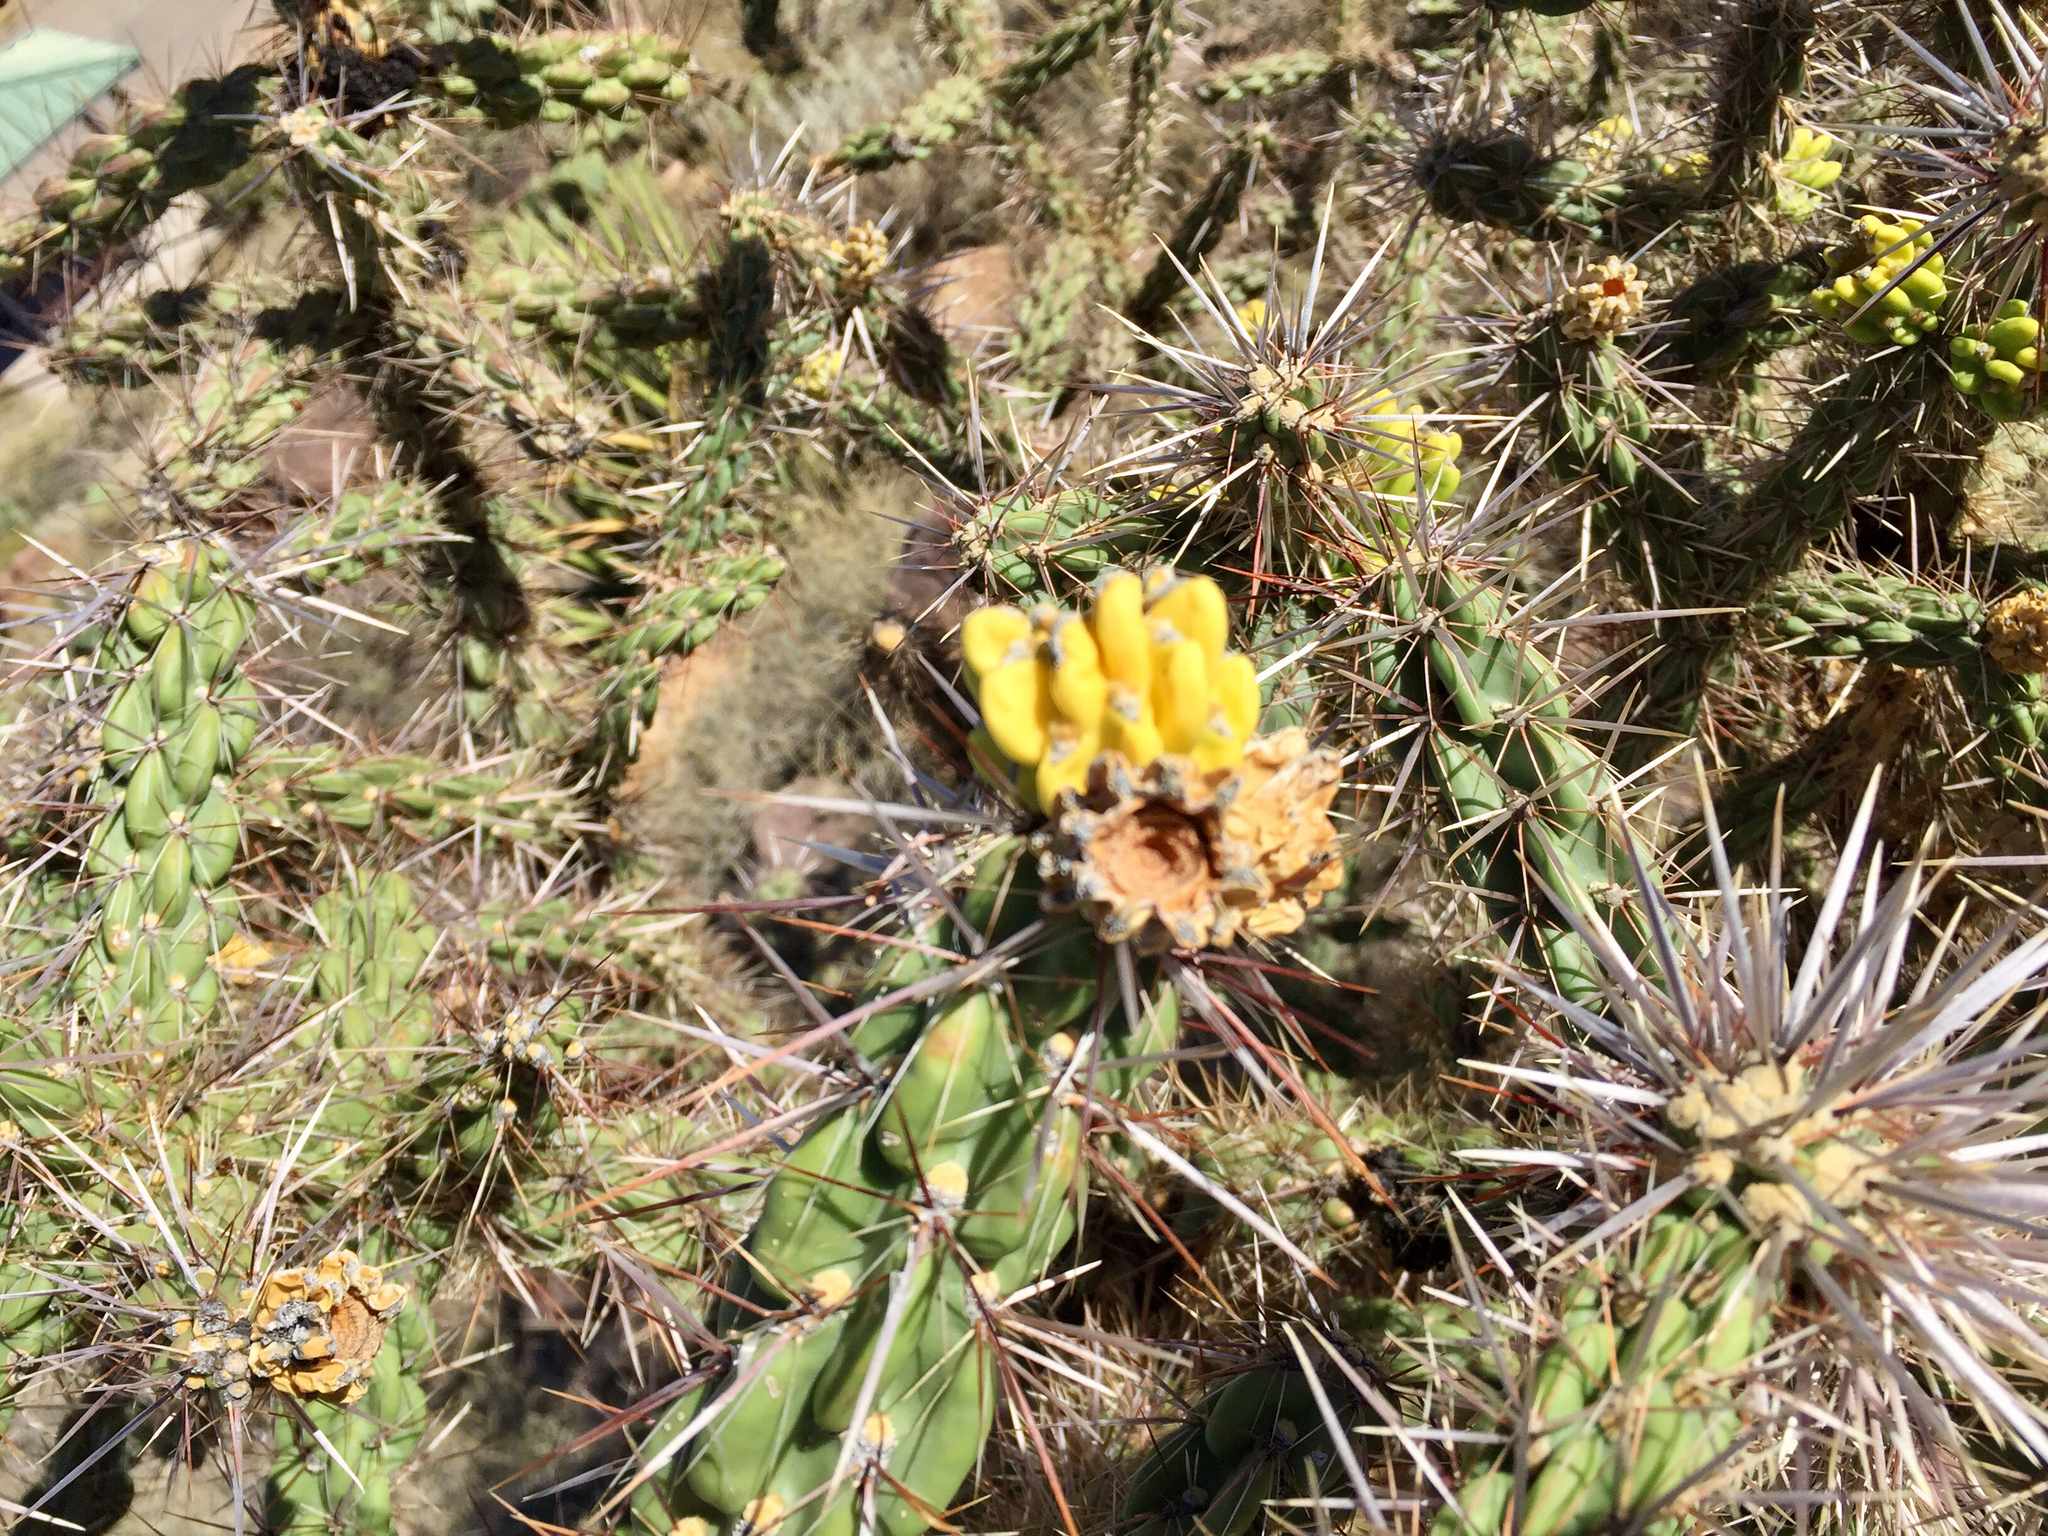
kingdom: Plantae
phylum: Tracheophyta
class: Magnoliopsida
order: Caryophyllales
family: Cactaceae
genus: Cylindropuntia
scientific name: Cylindropuntia imbricata
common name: Candelabrum cactus
